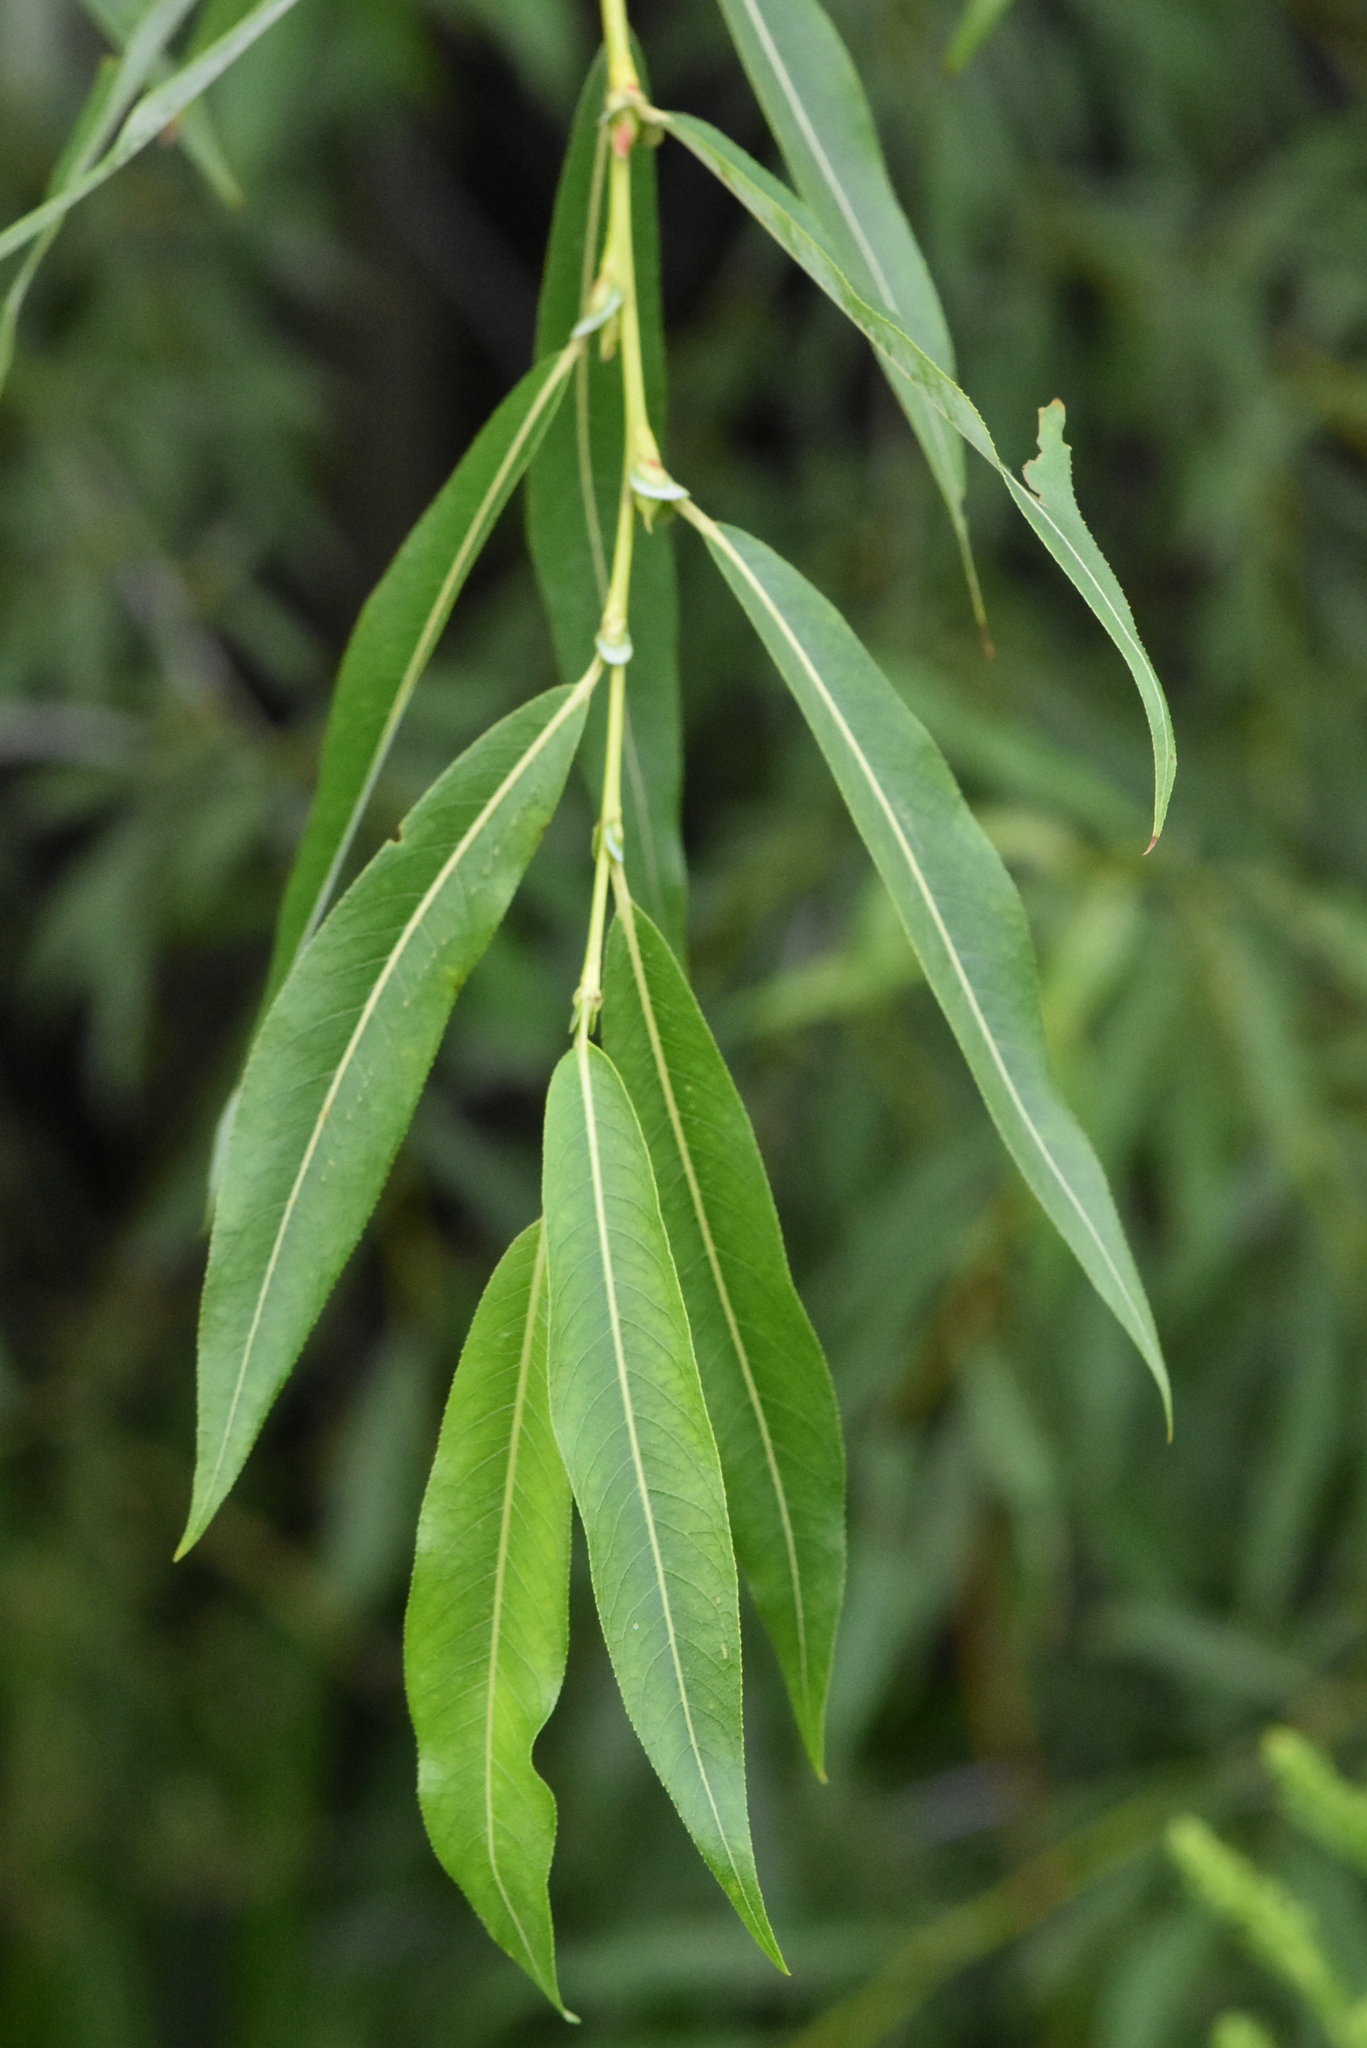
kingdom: Plantae
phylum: Tracheophyta
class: Magnoliopsida
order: Malpighiales
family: Salicaceae
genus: Salix
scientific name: Salix rorida
